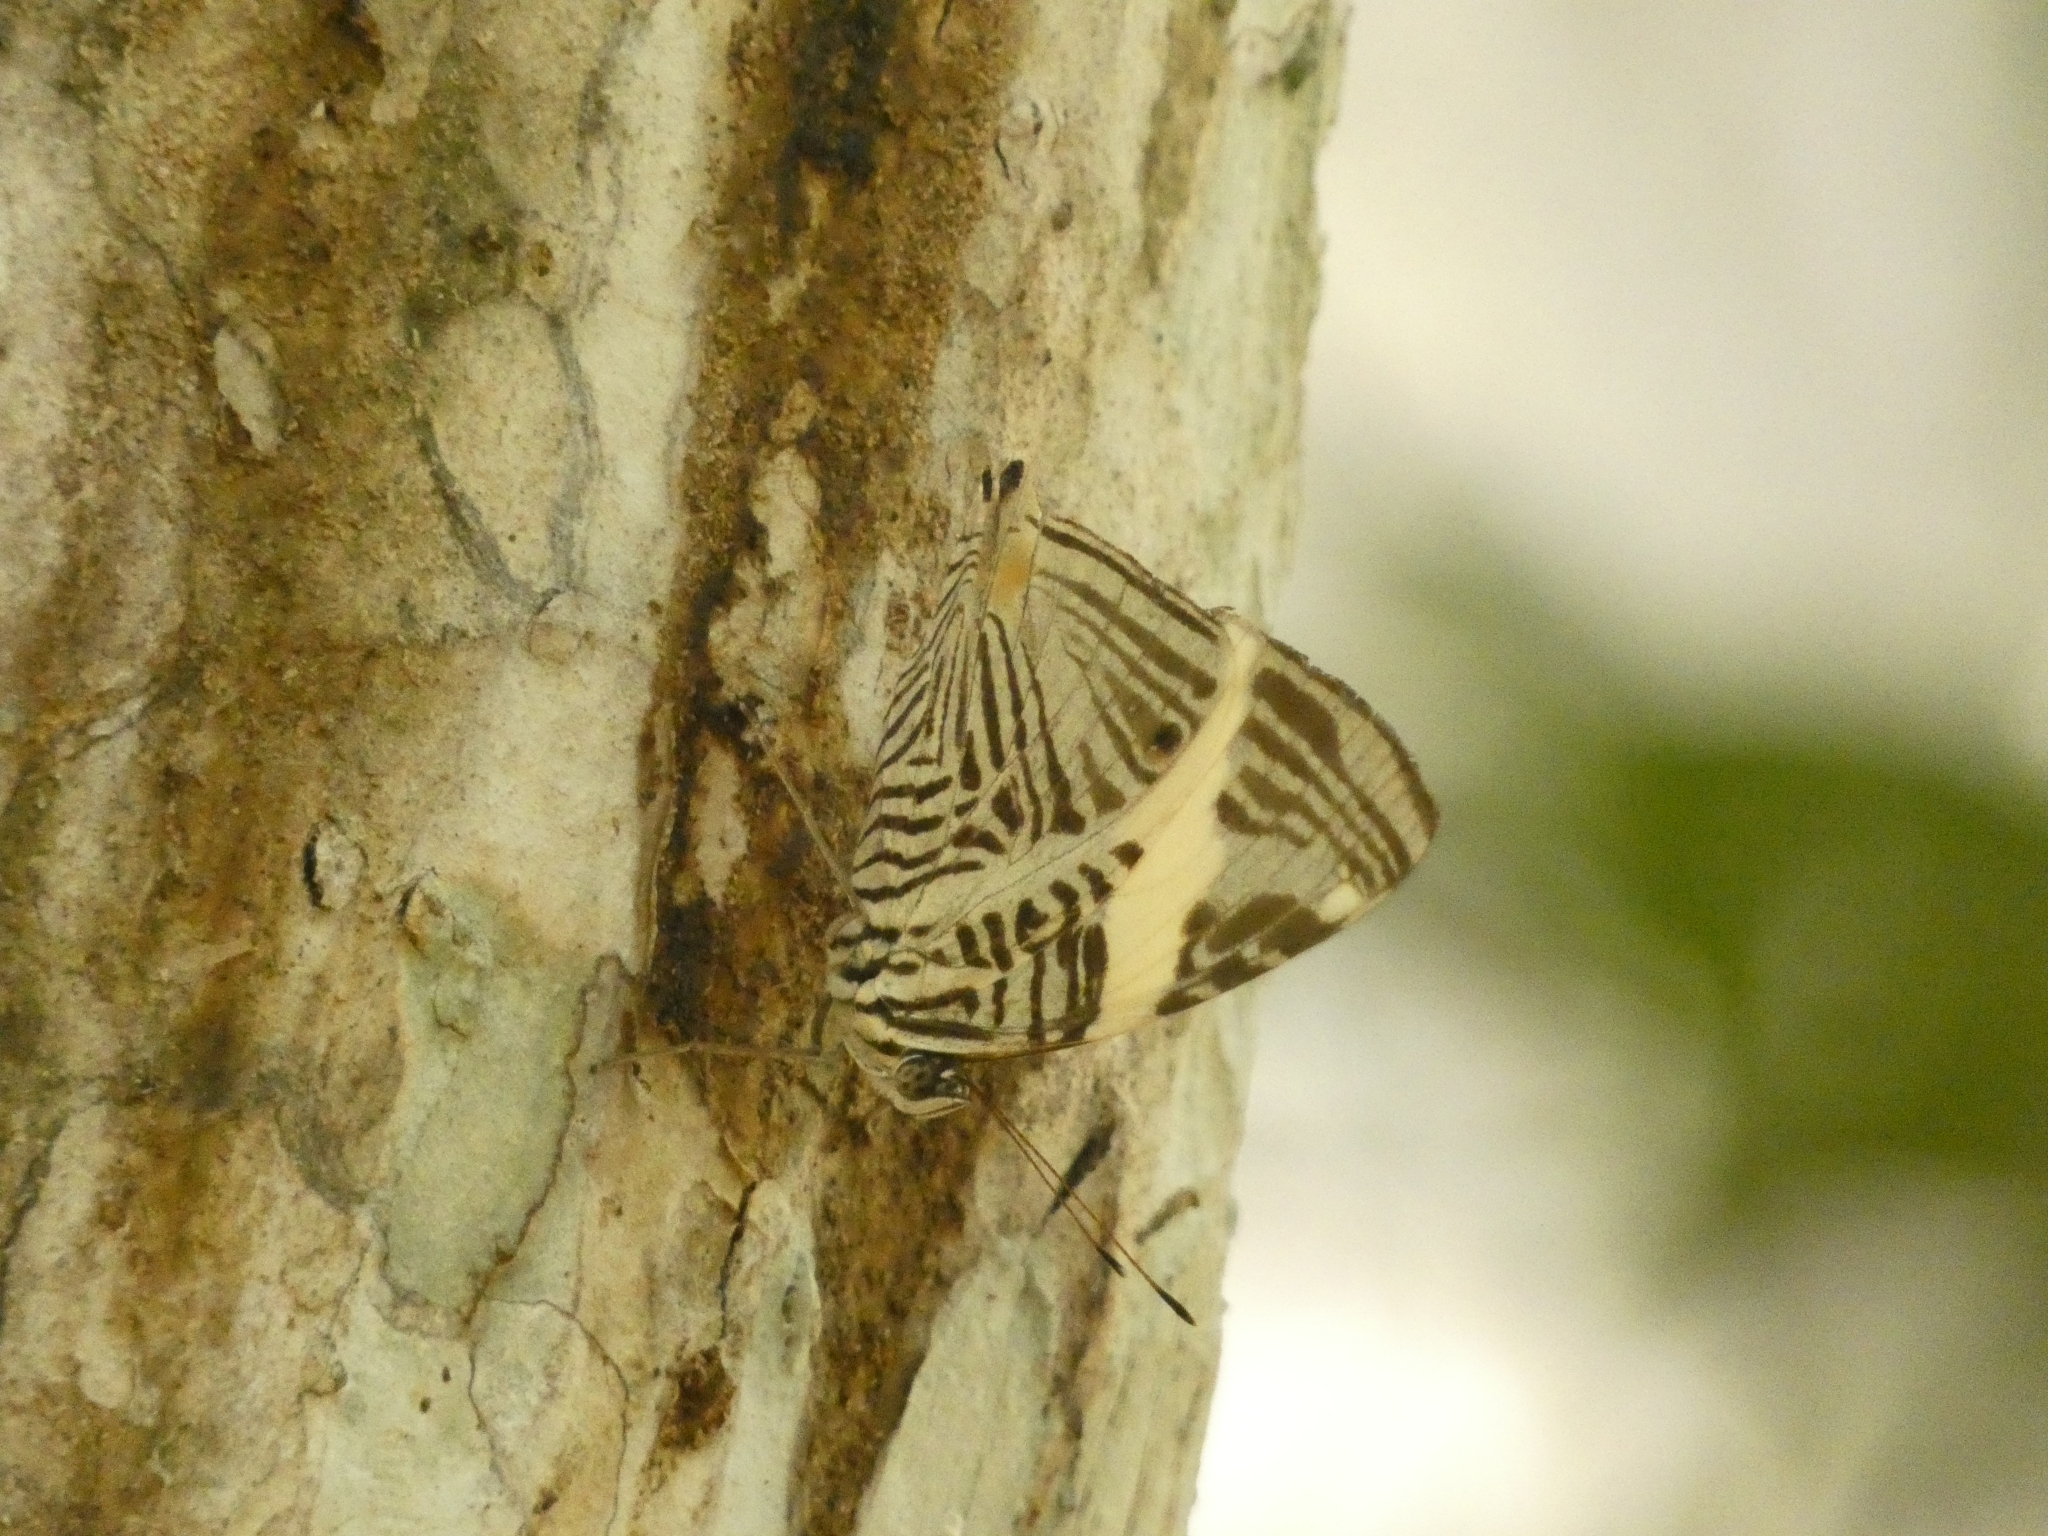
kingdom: Animalia
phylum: Arthropoda
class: Insecta
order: Lepidoptera
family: Nymphalidae
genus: Colobura
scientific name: Colobura dirce
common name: Dirce beauty
